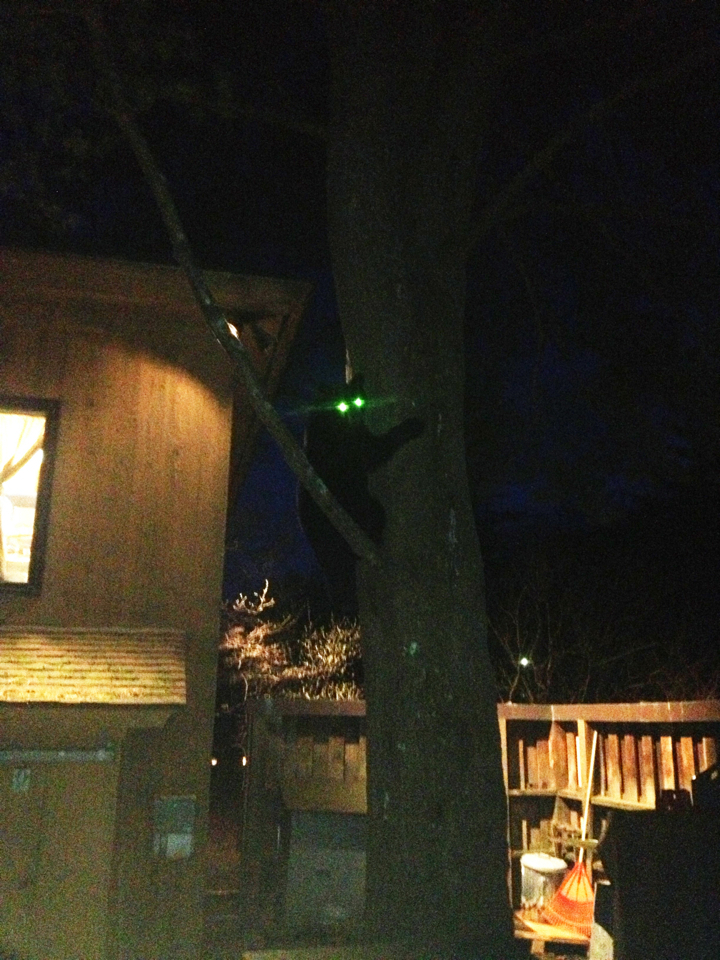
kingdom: Animalia
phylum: Chordata
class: Mammalia
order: Carnivora
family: Ursidae
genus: Ursus
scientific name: Ursus americanus
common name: American black bear
